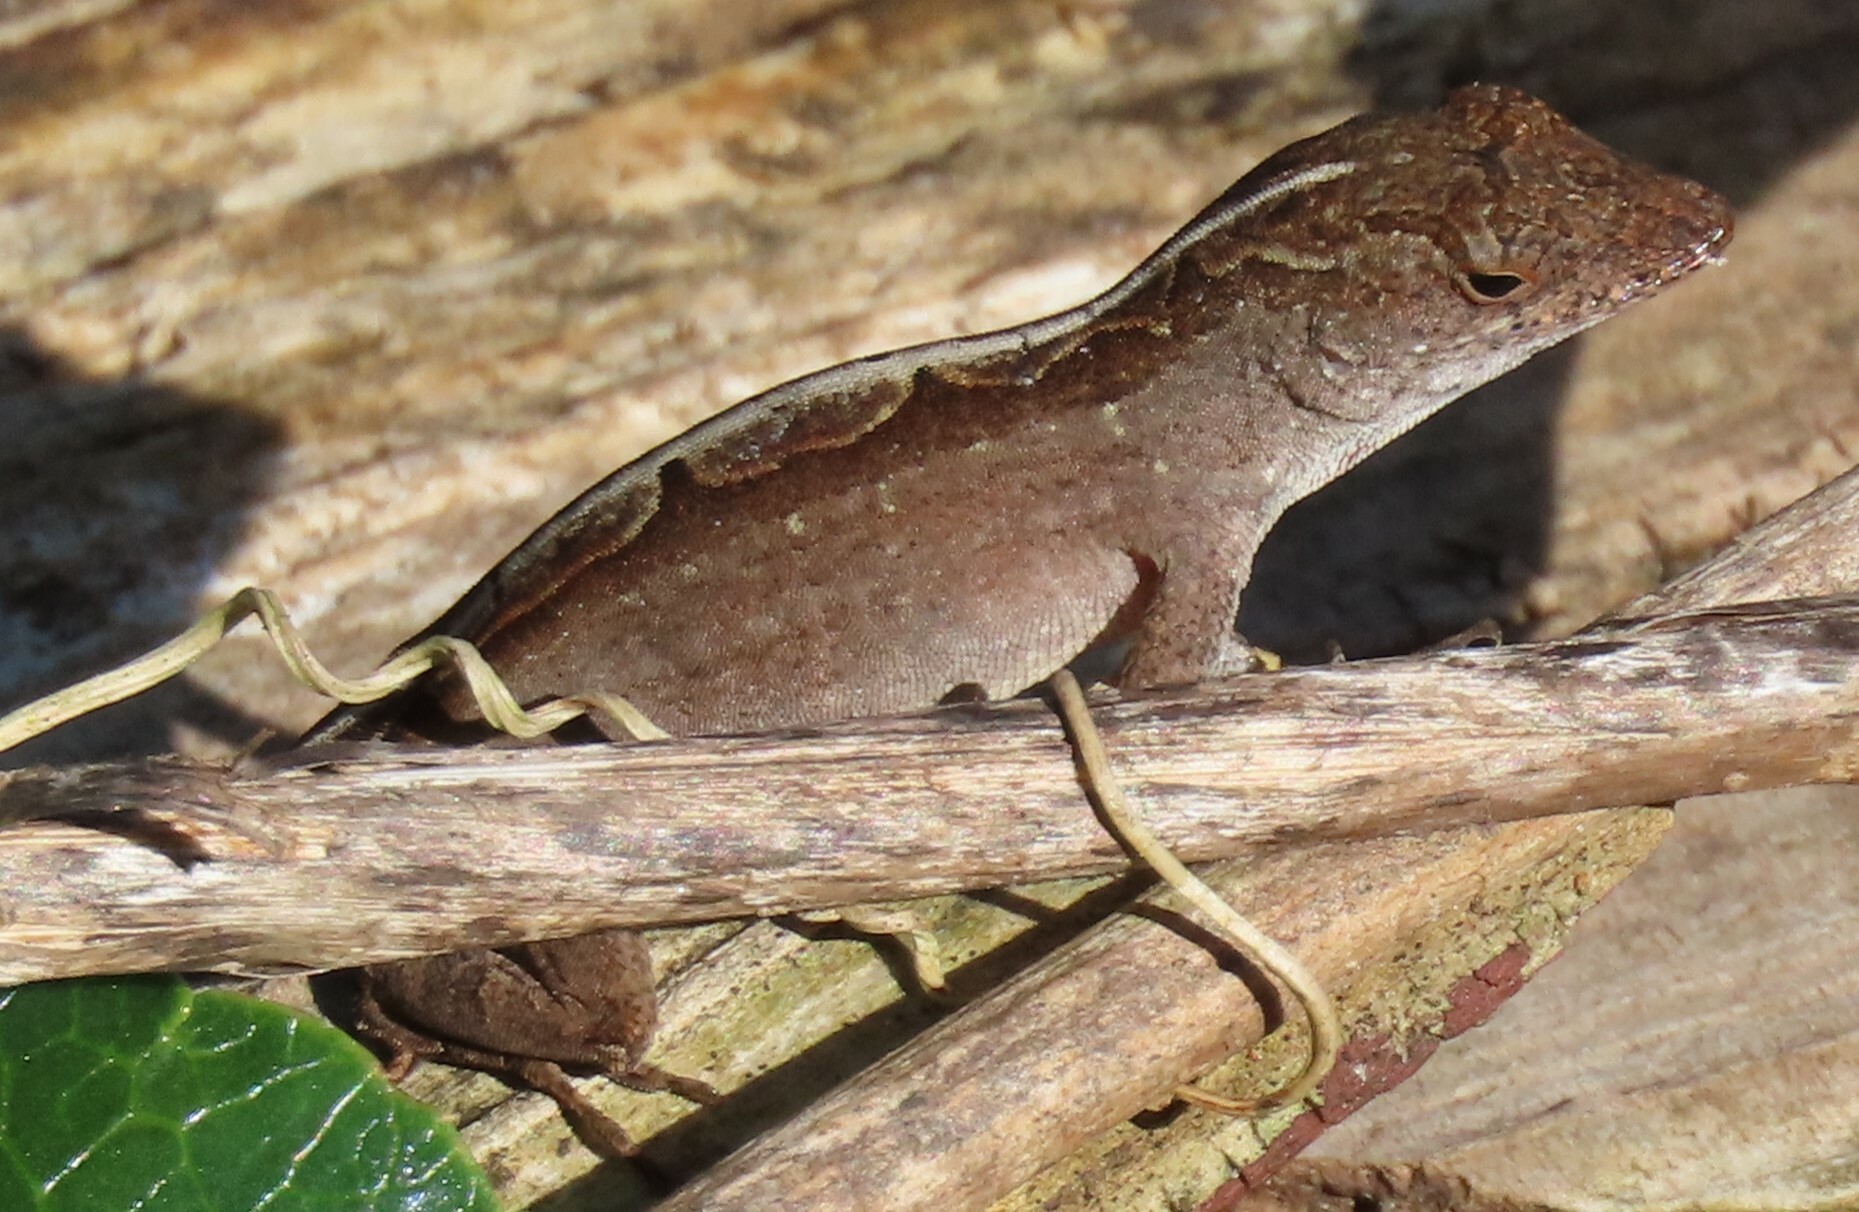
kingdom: Animalia
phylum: Chordata
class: Squamata
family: Dactyloidae
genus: Anolis
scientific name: Anolis sagrei
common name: Brown anole
